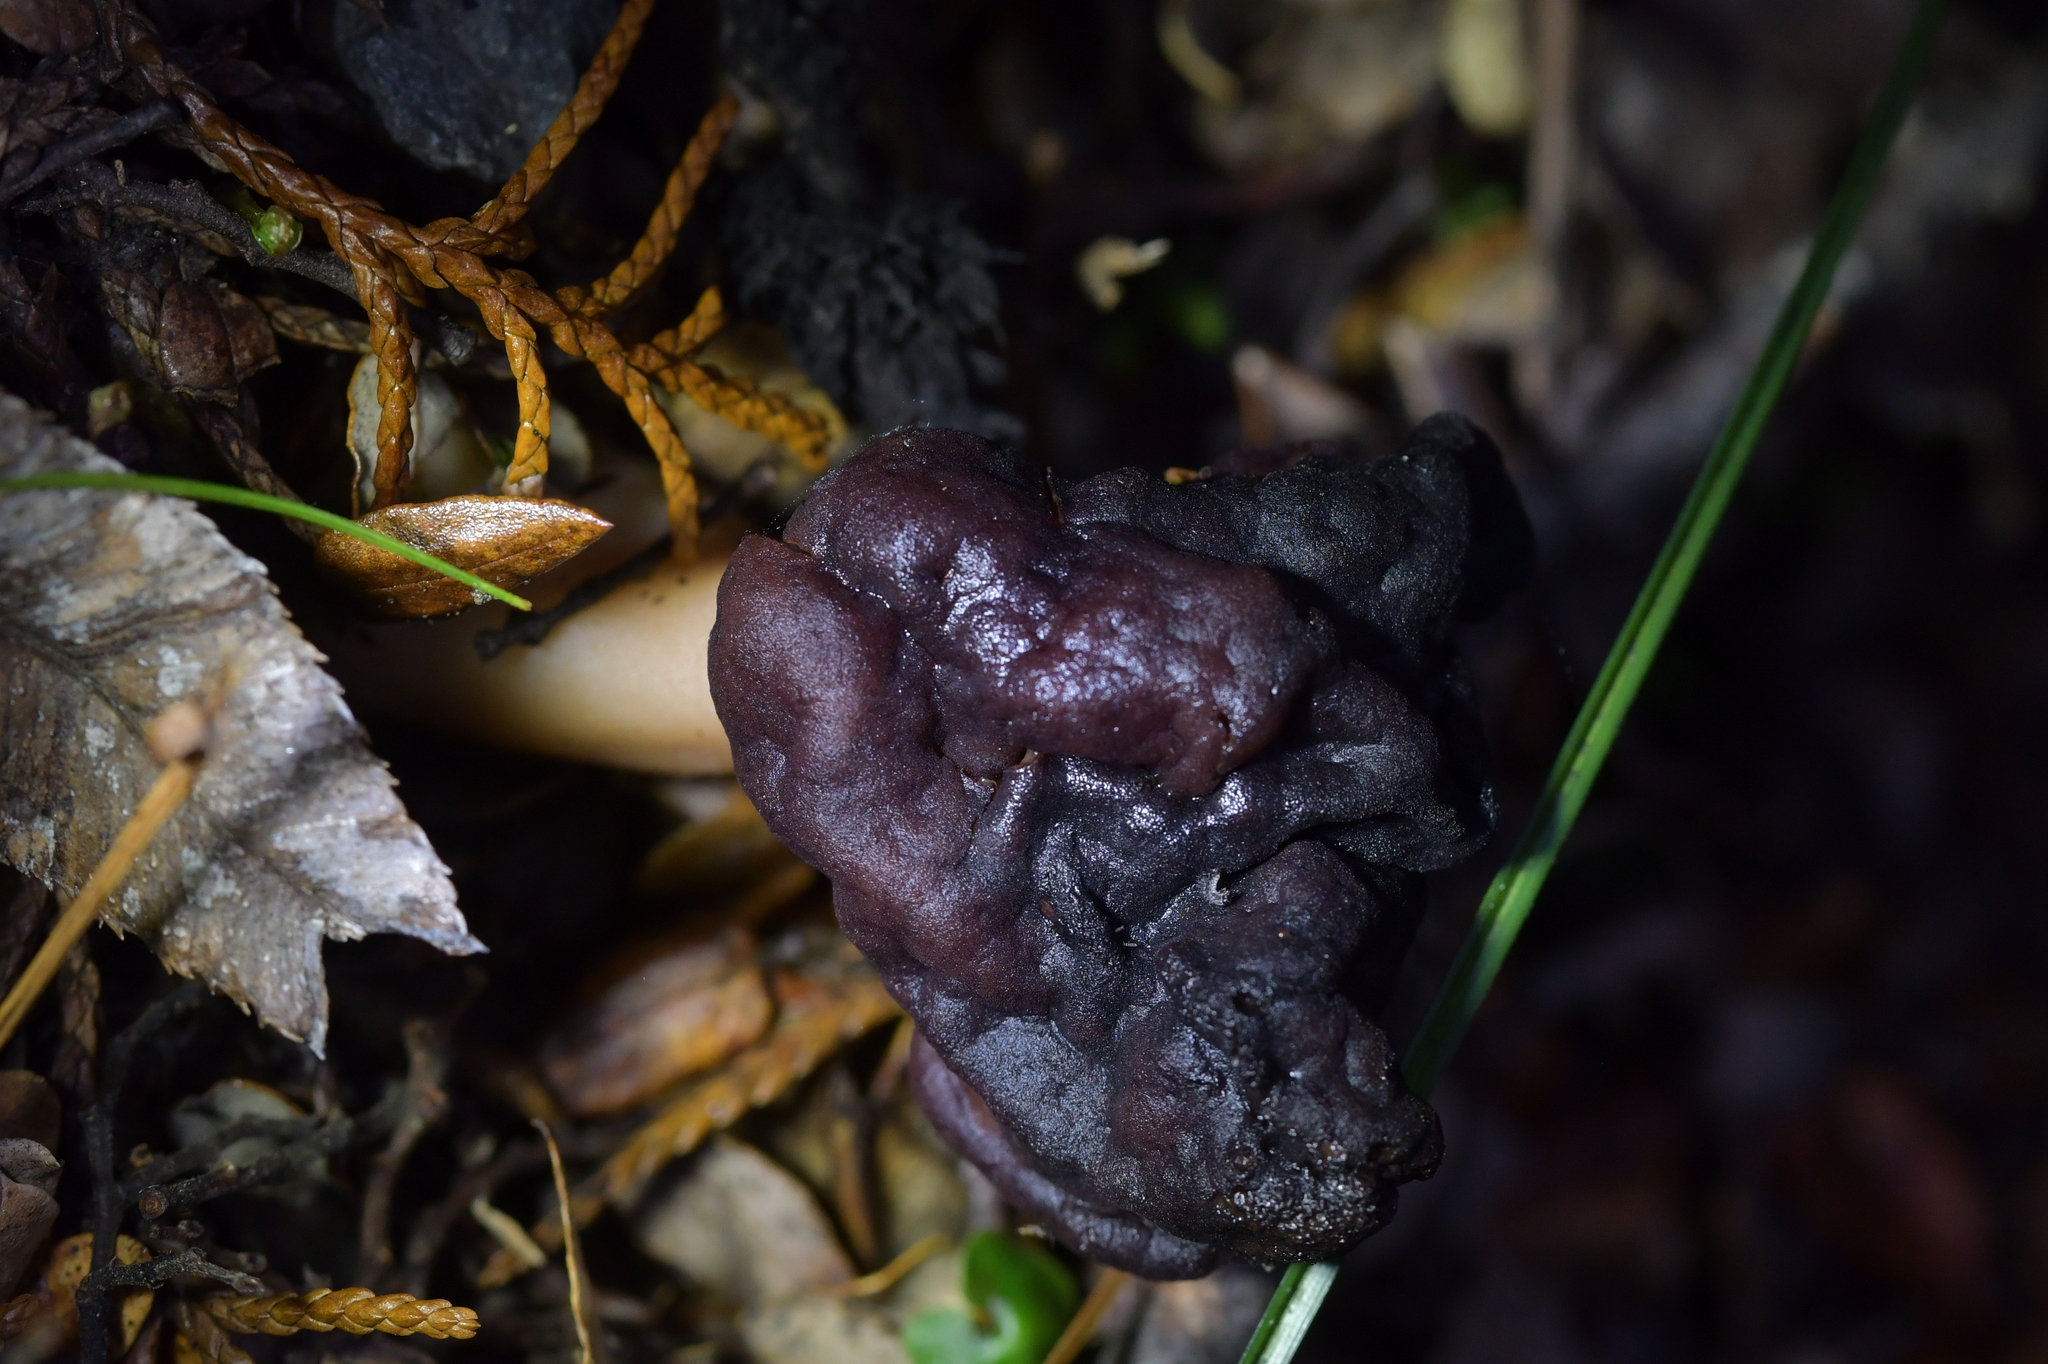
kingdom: Fungi
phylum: Ascomycota
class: Pezizomycetes
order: Pezizales
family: Discinaceae
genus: Gyromitra
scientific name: Gyromitra tasmanica
